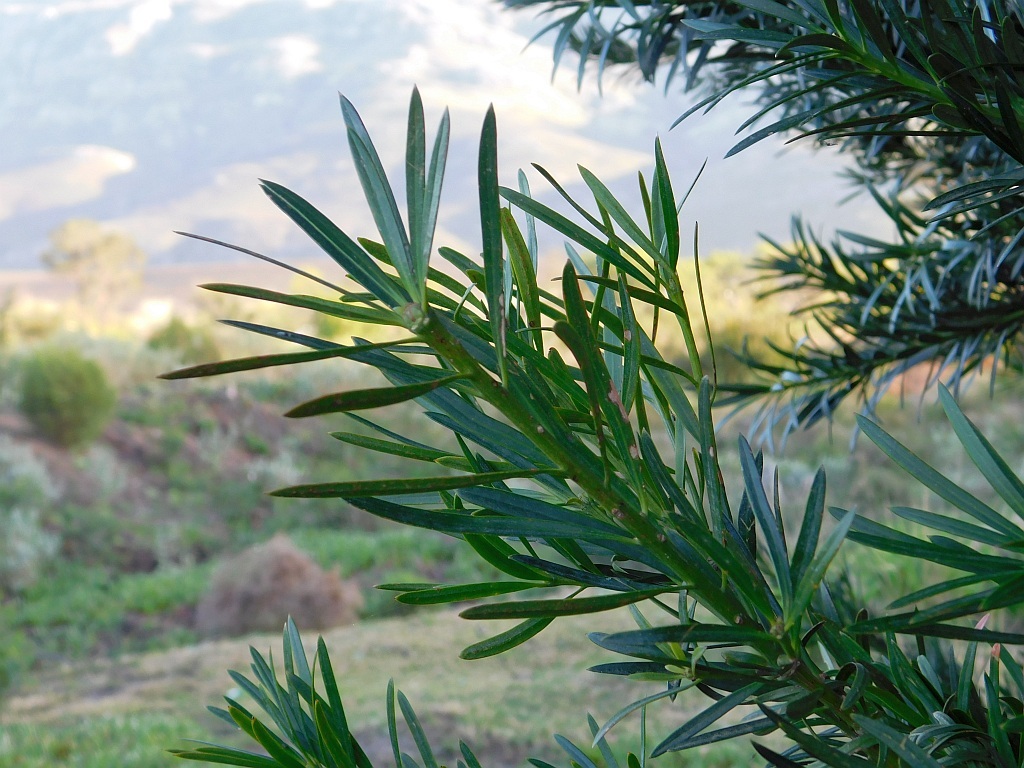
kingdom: Plantae
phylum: Tracheophyta
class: Pinopsida
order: Pinales
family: Podocarpaceae
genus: Afrocarpus
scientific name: Afrocarpus falcatus
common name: Bastard yellowwood
